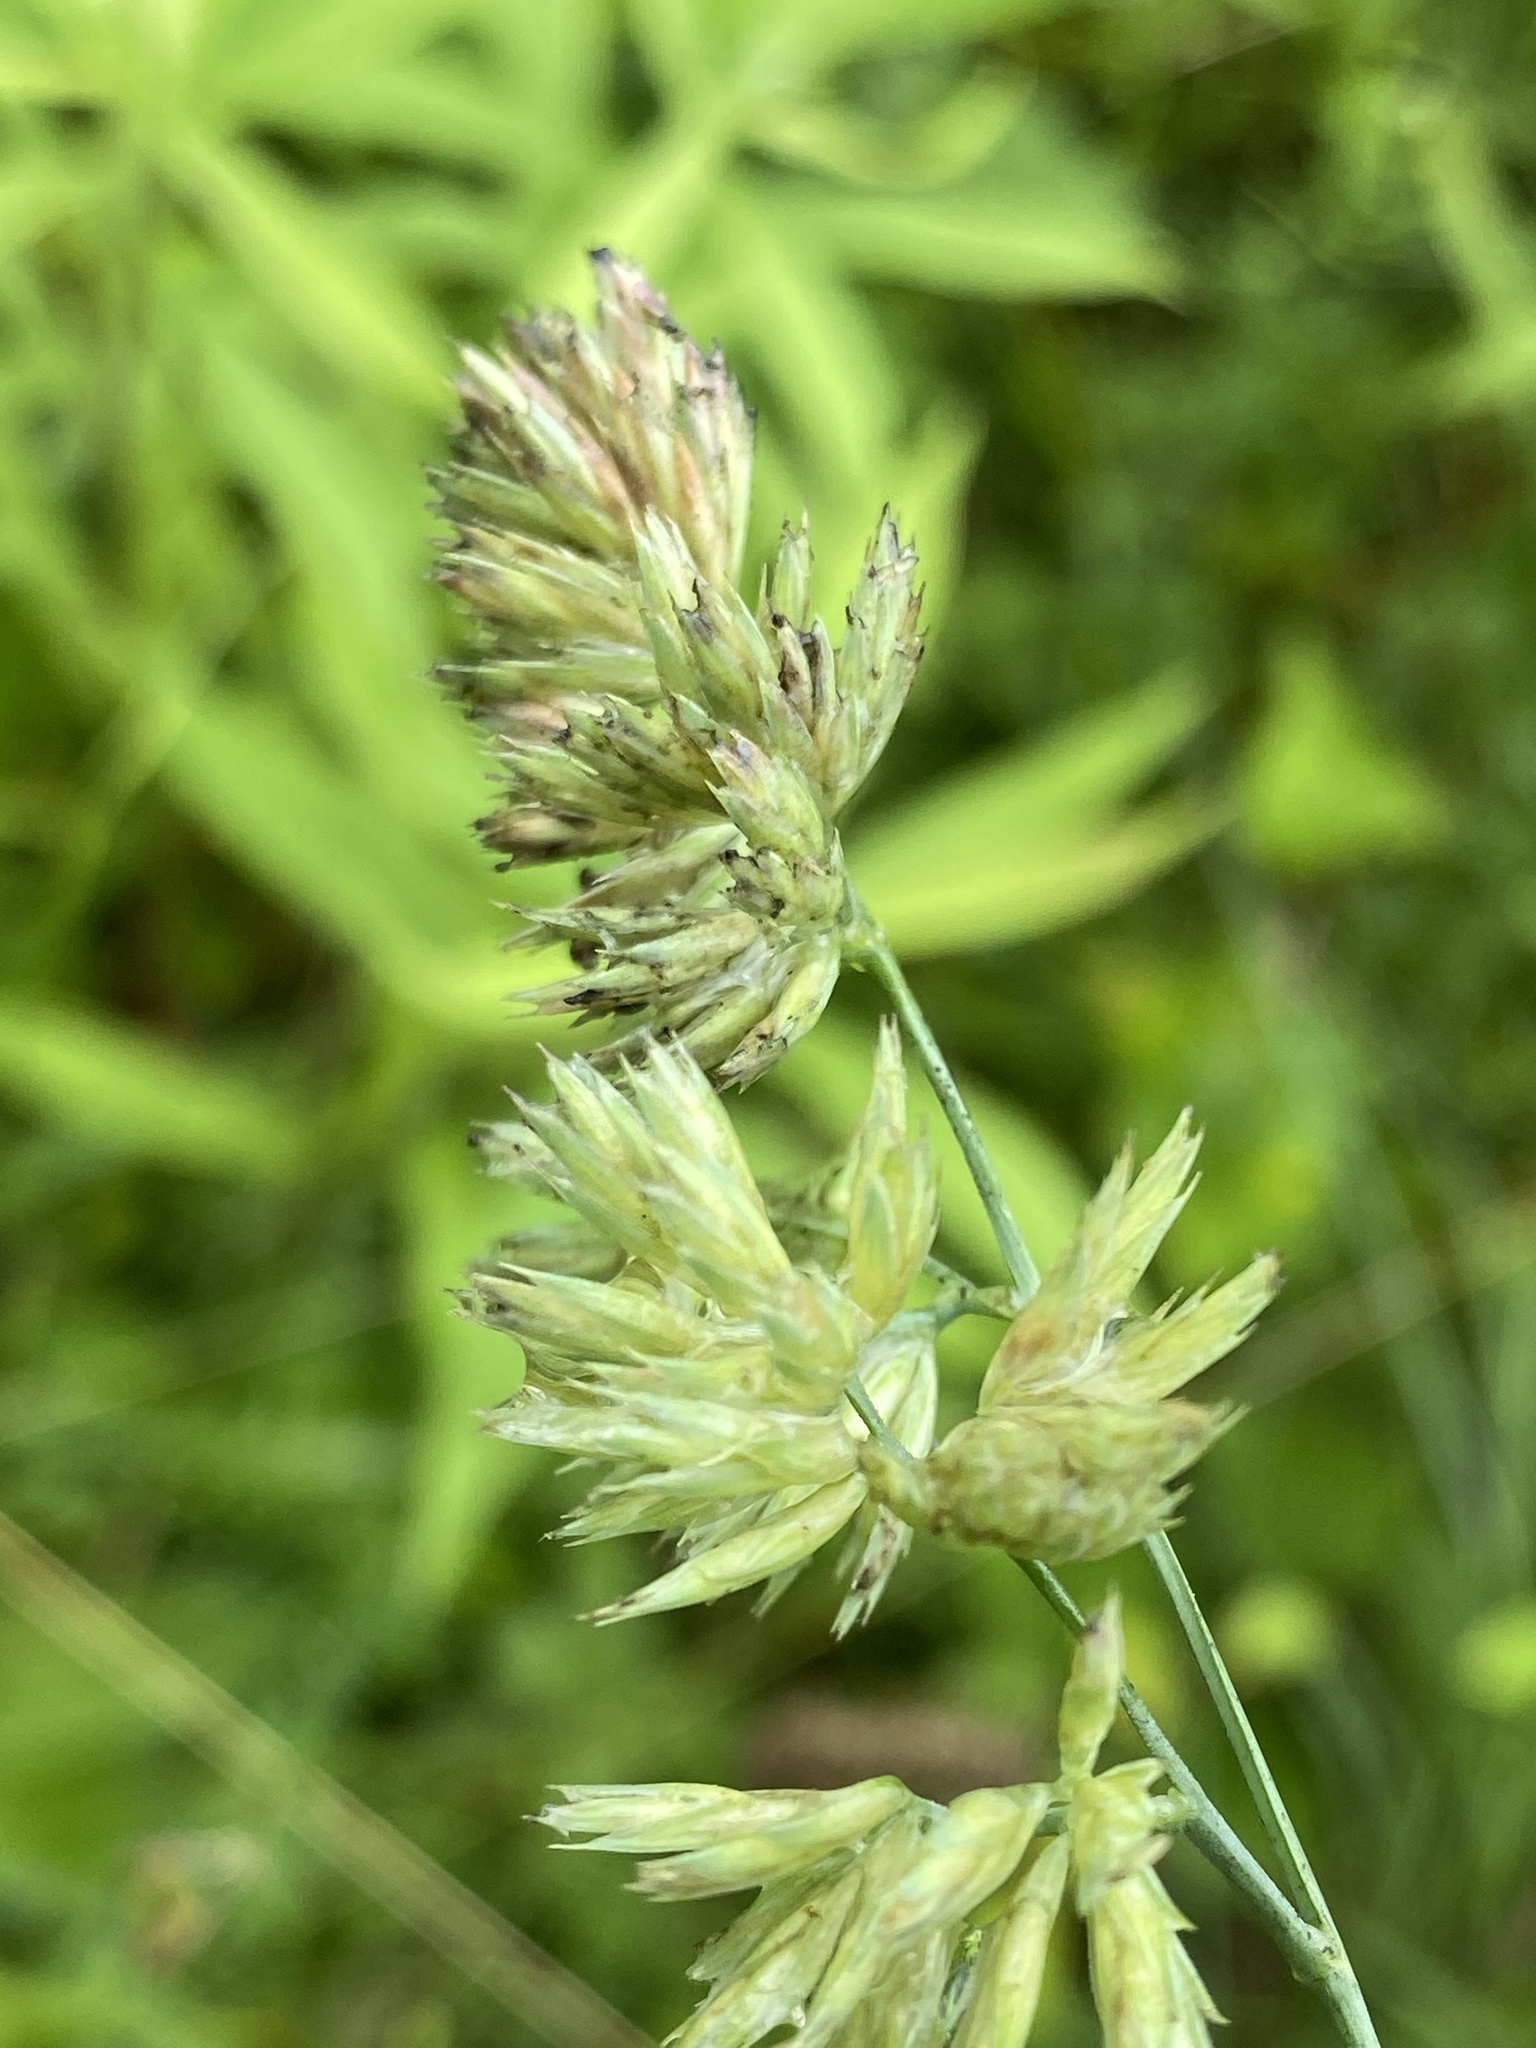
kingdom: Plantae
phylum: Tracheophyta
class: Liliopsida
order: Poales
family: Poaceae
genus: Dactylis
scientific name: Dactylis glomerata
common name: Orchardgrass
